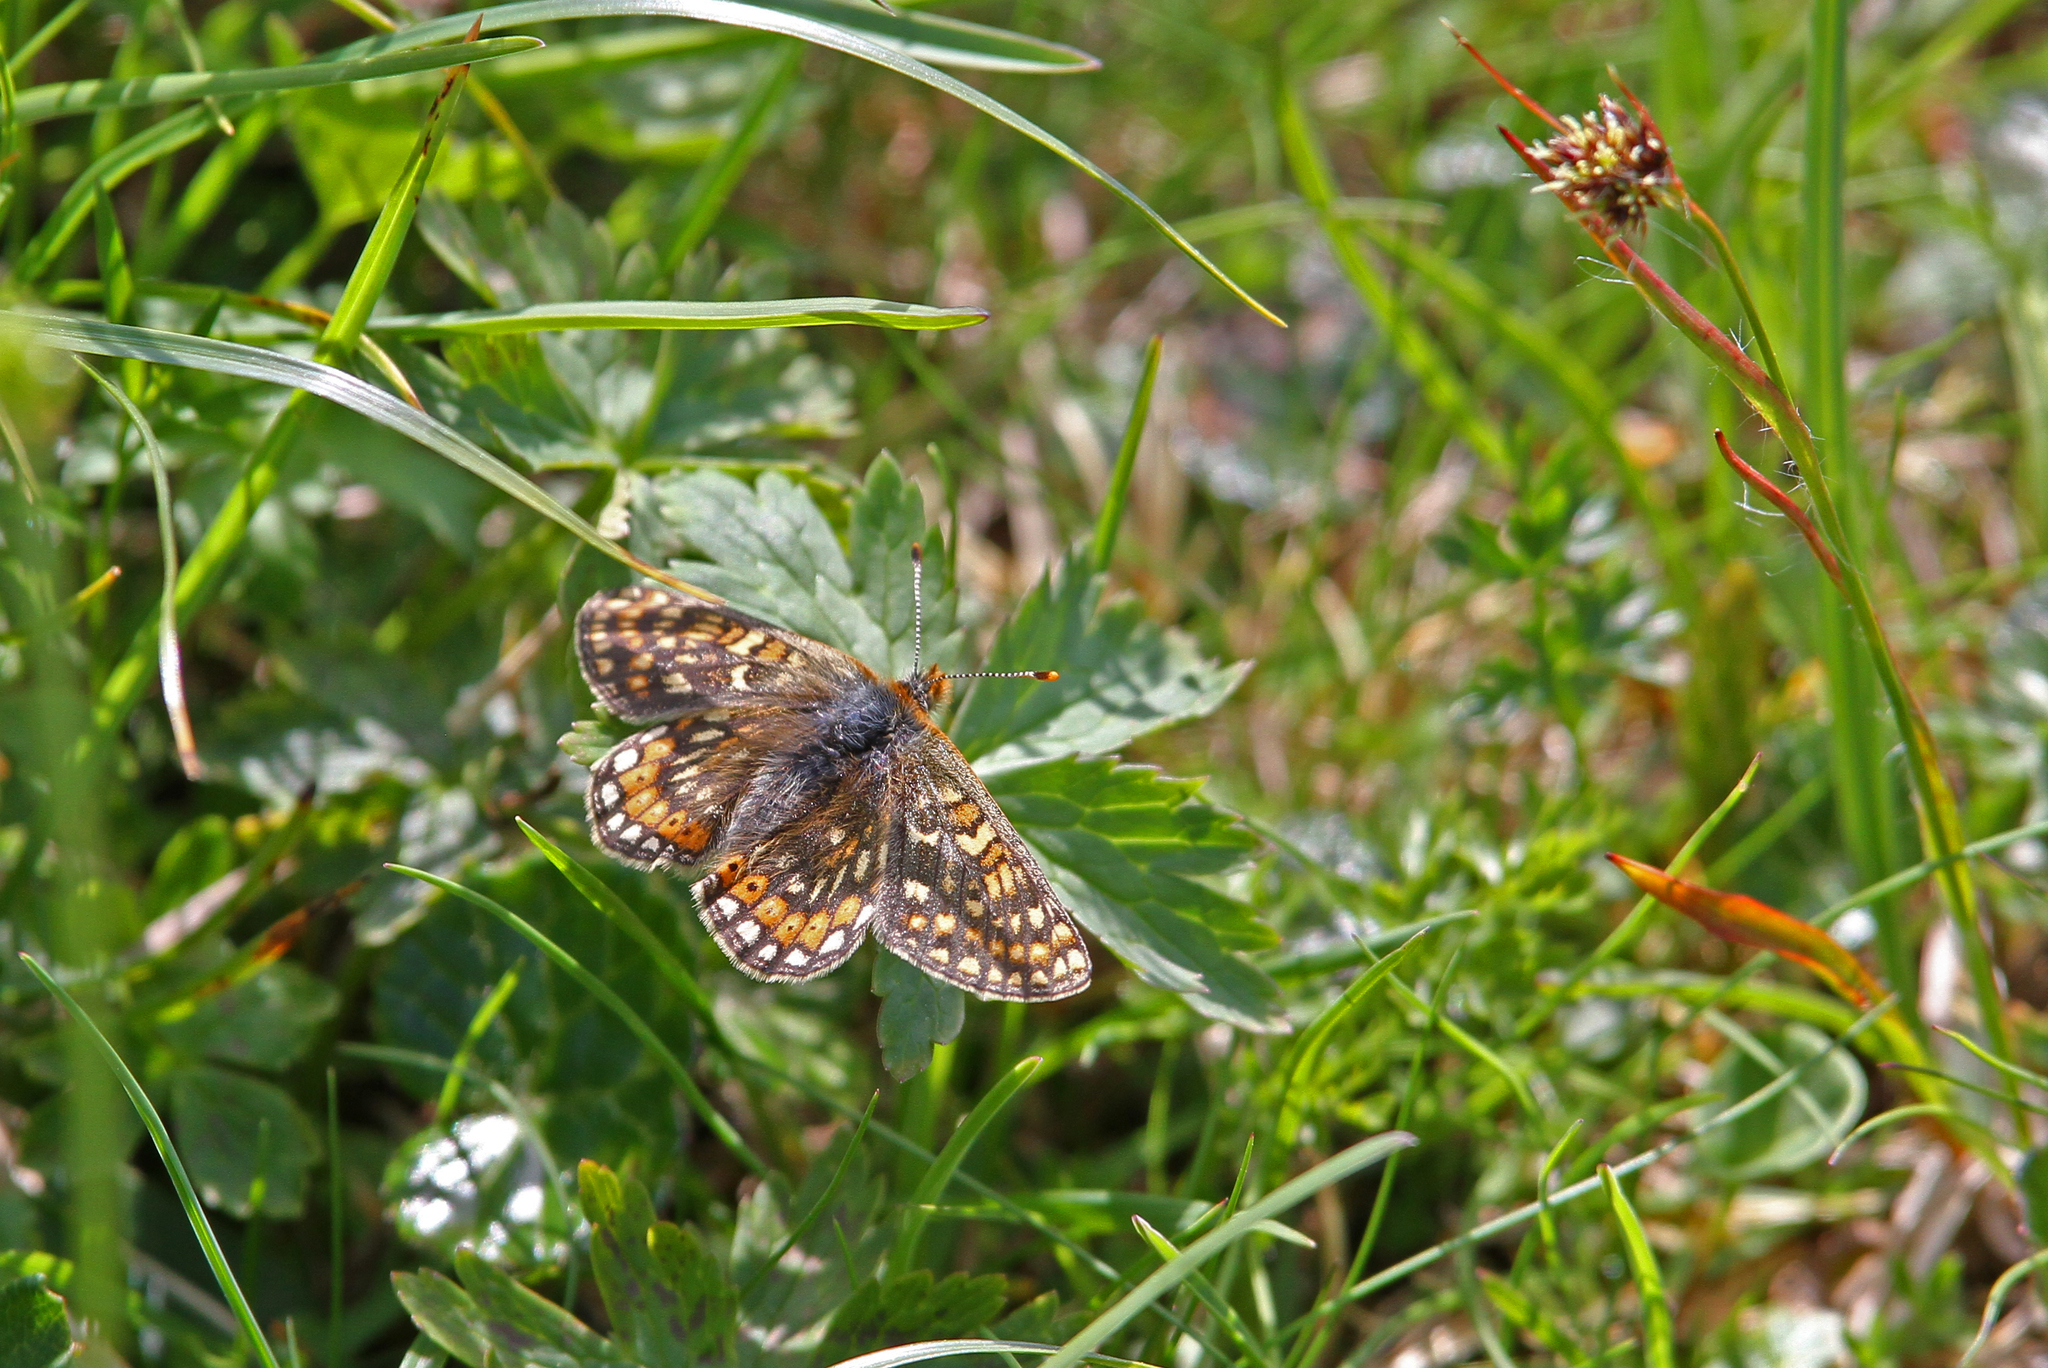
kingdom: Animalia
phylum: Arthropoda
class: Insecta
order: Lepidoptera
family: Nymphalidae
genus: Euphydryas
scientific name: Euphydryas aurinia
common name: Marsh fritillary
